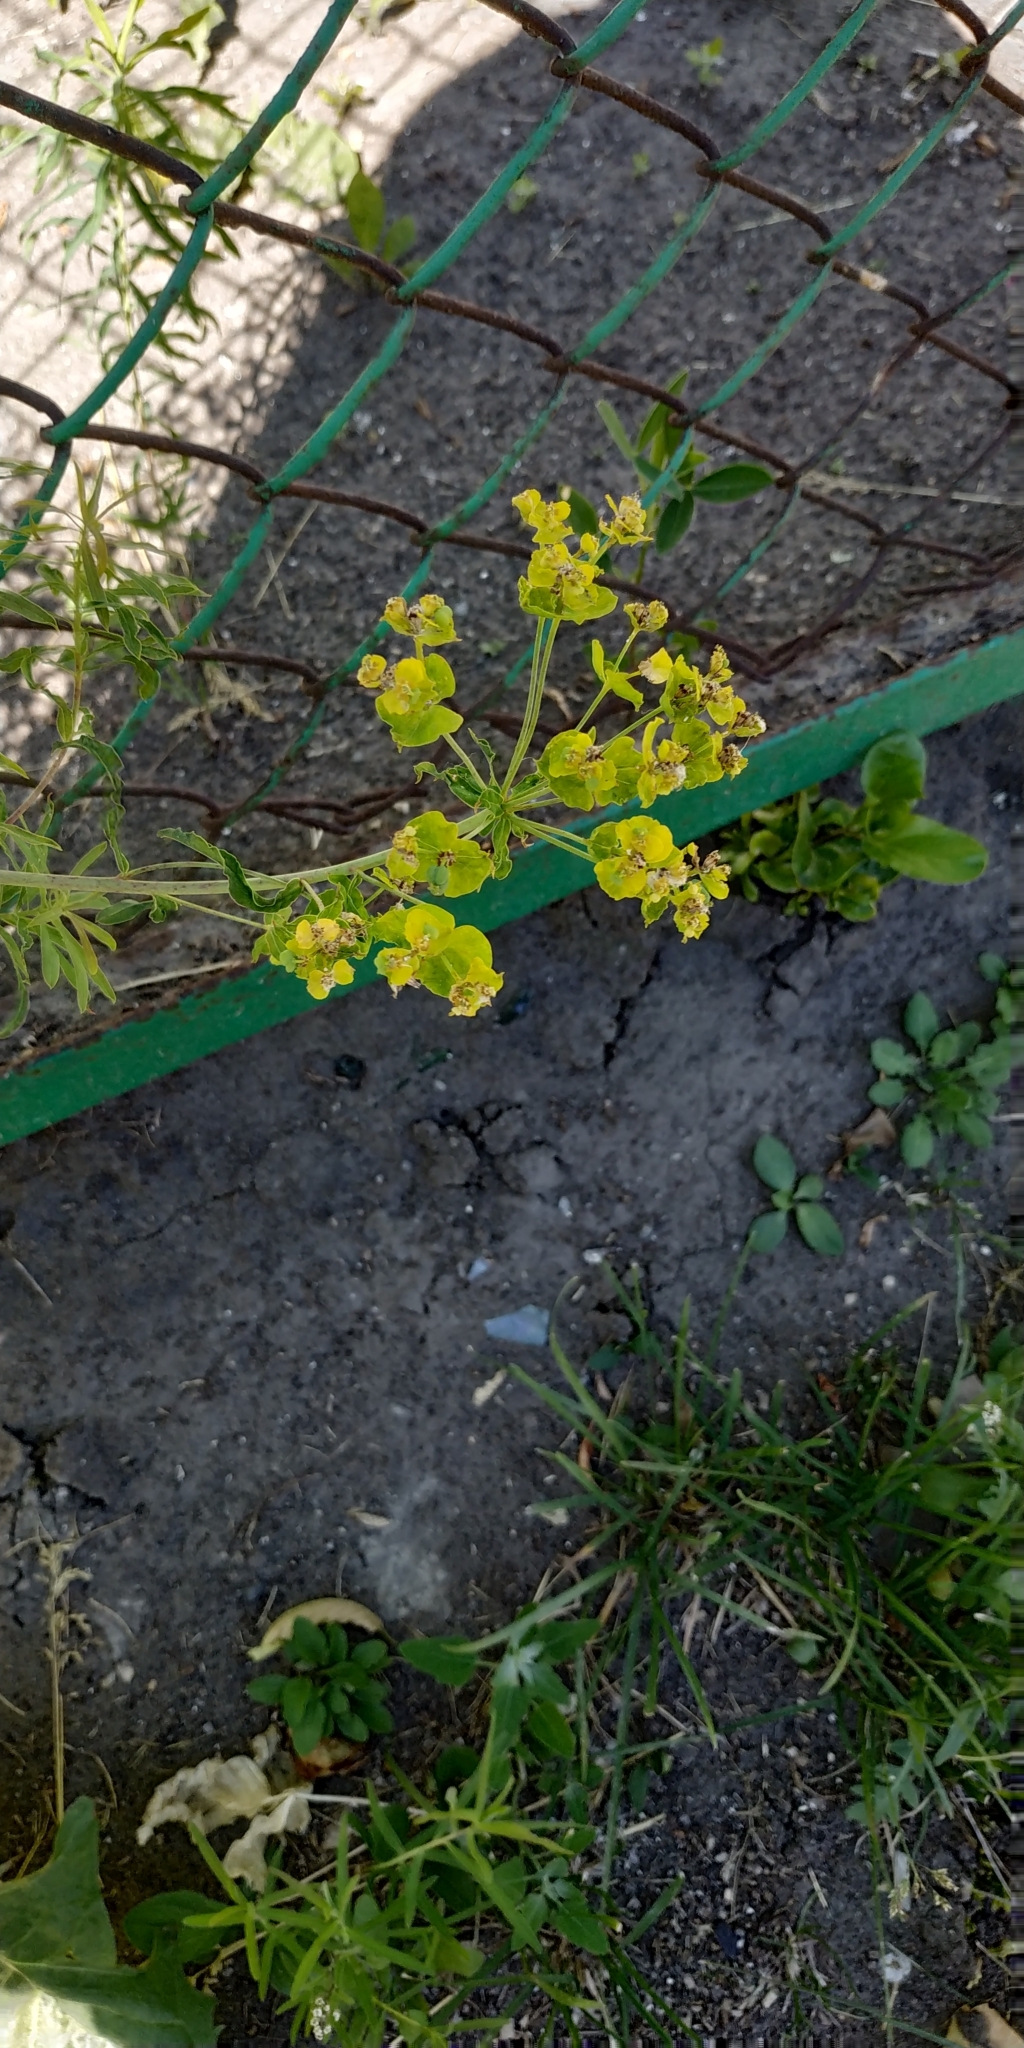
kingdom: Plantae
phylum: Tracheophyta
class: Magnoliopsida
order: Malpighiales
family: Euphorbiaceae
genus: Euphorbia
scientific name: Euphorbia virgata
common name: Leafy spurge
